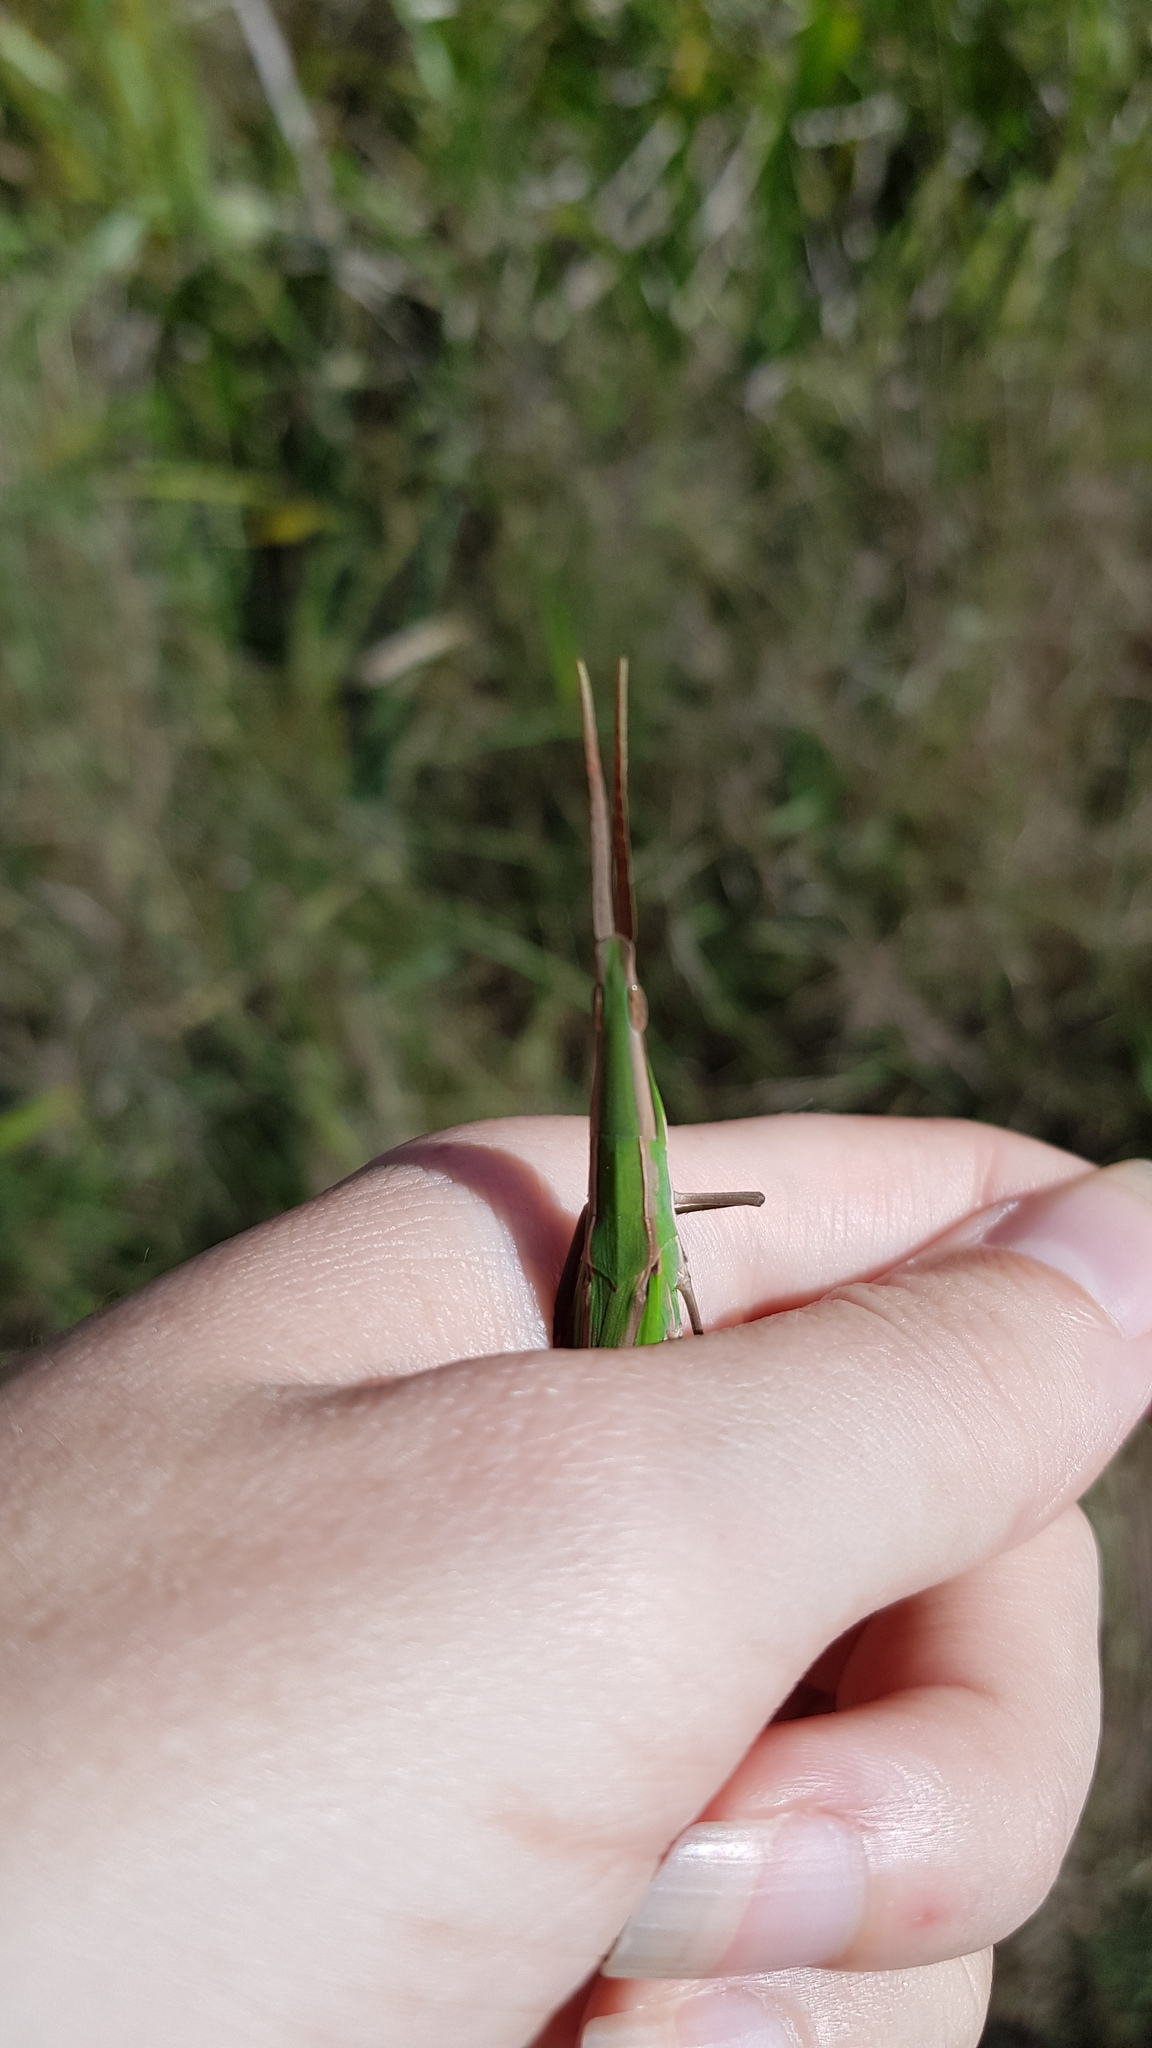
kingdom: Animalia
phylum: Arthropoda
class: Insecta
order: Orthoptera
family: Acrididae
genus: Acrida
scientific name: Acrida conica
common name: Giant green slantface
